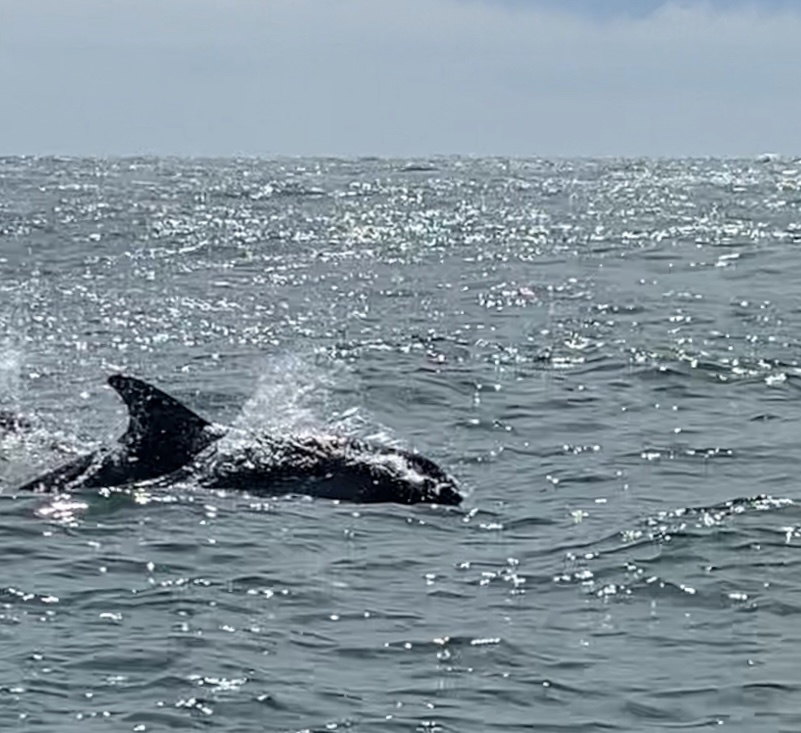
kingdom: Animalia
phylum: Chordata
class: Mammalia
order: Cetacea
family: Delphinidae
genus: Lagenorhynchus
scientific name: Lagenorhynchus australis
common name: Peale's dolphin
